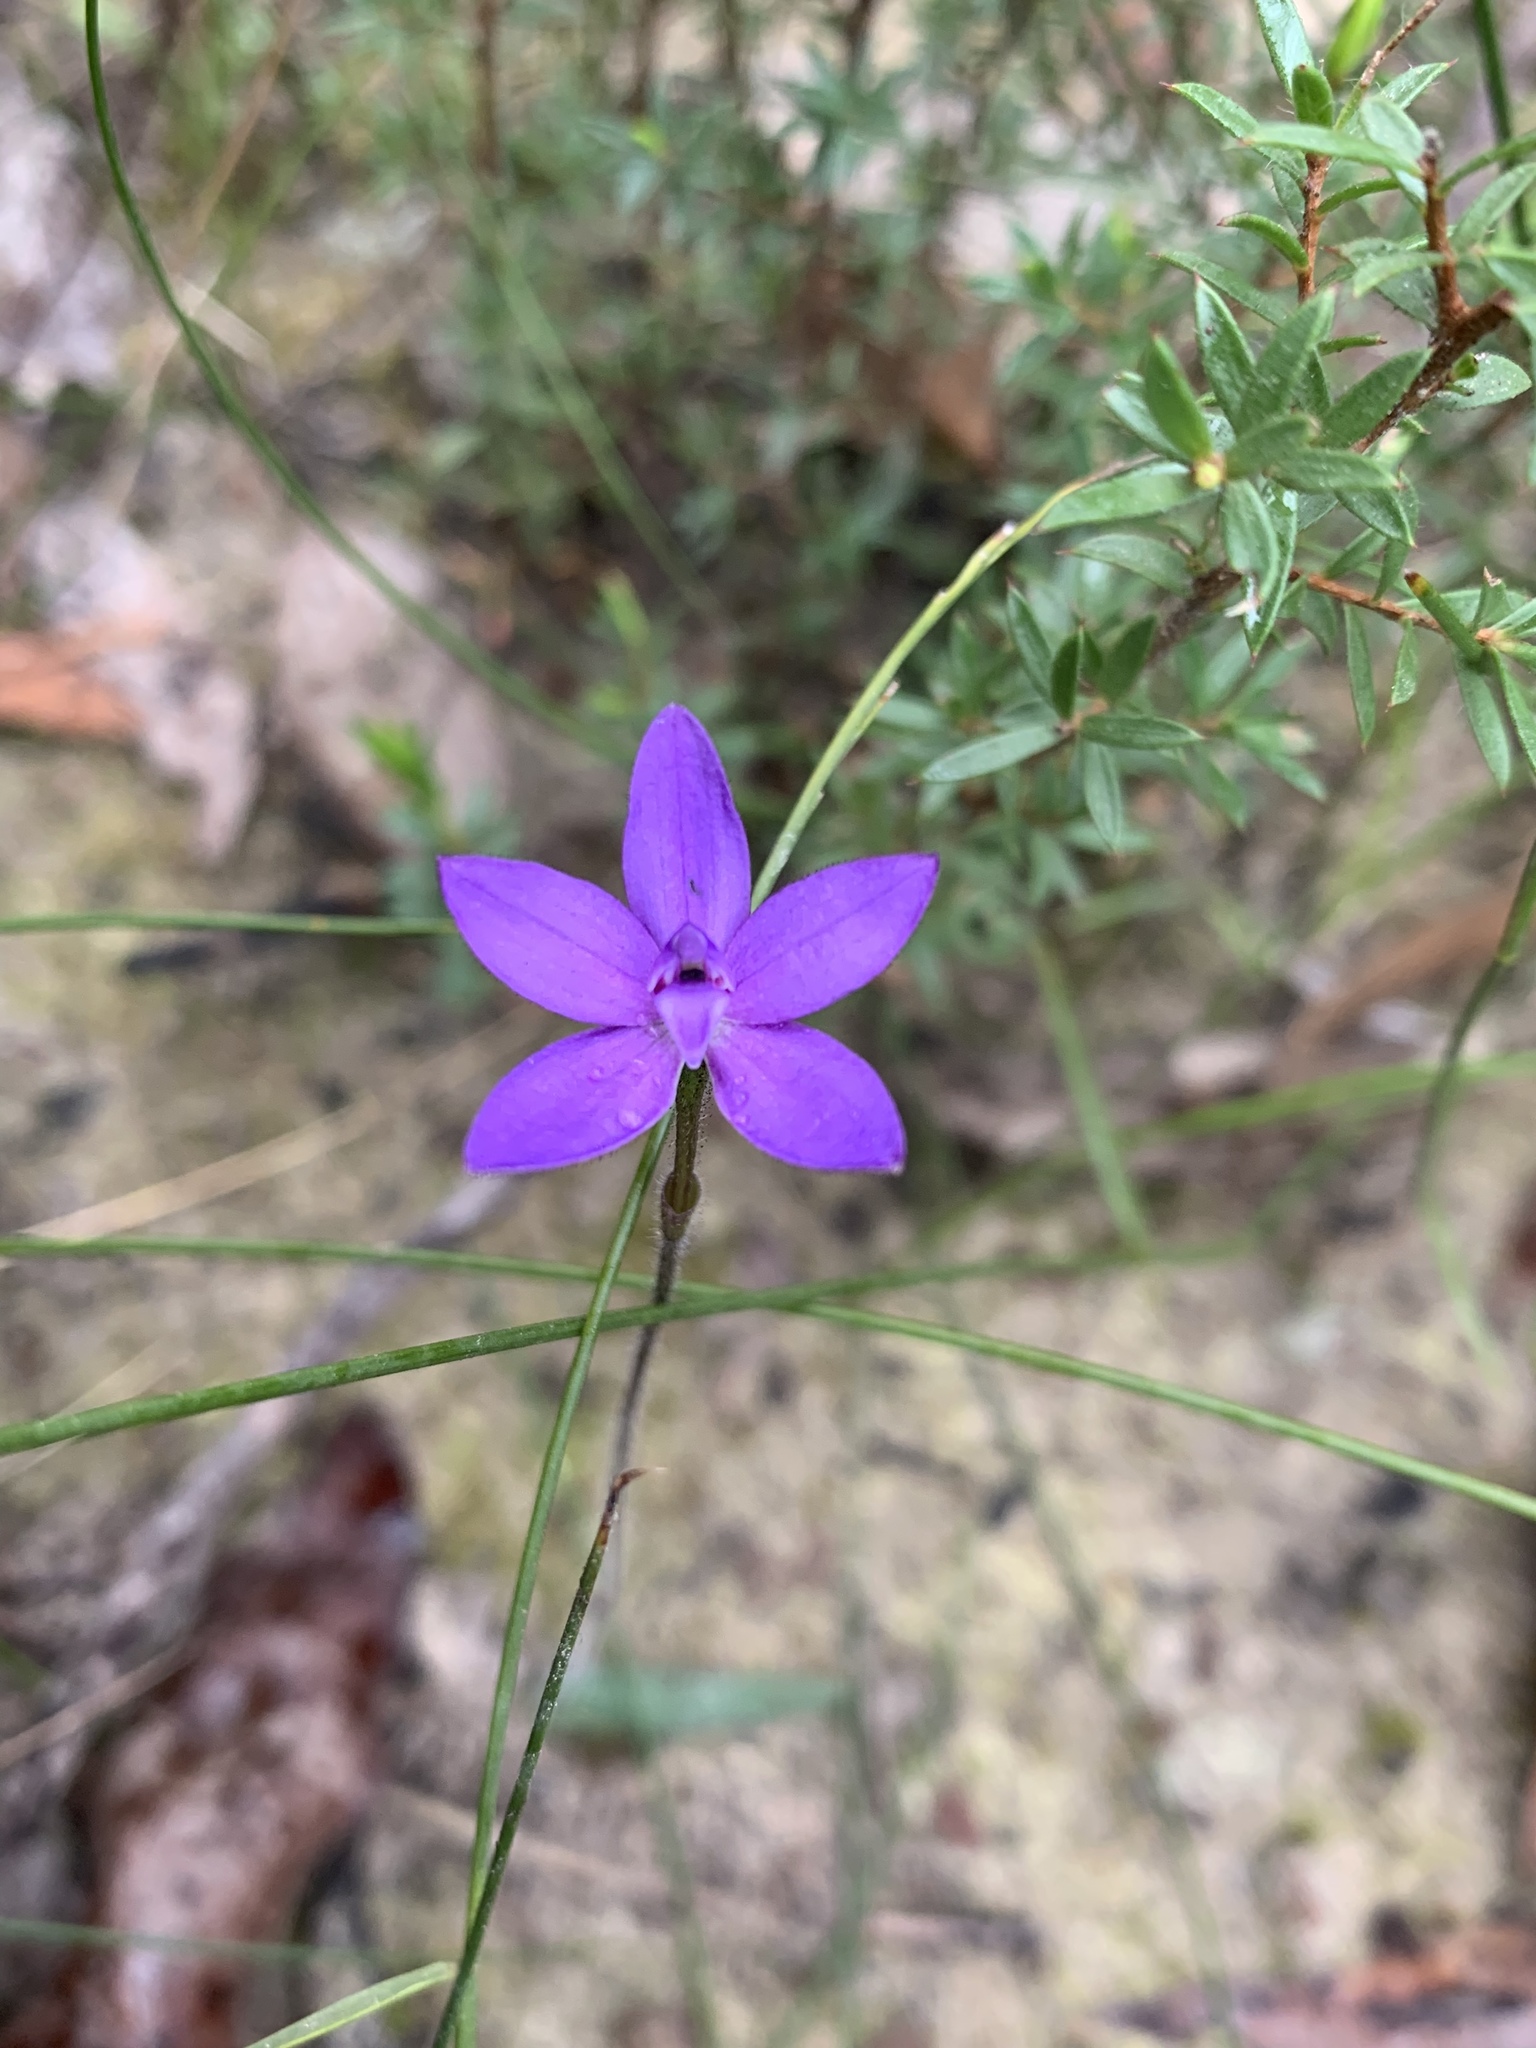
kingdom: Plantae
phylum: Tracheophyta
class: Liliopsida
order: Asparagales
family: Orchidaceae
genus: Caladenia
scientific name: Caladenia minorata
